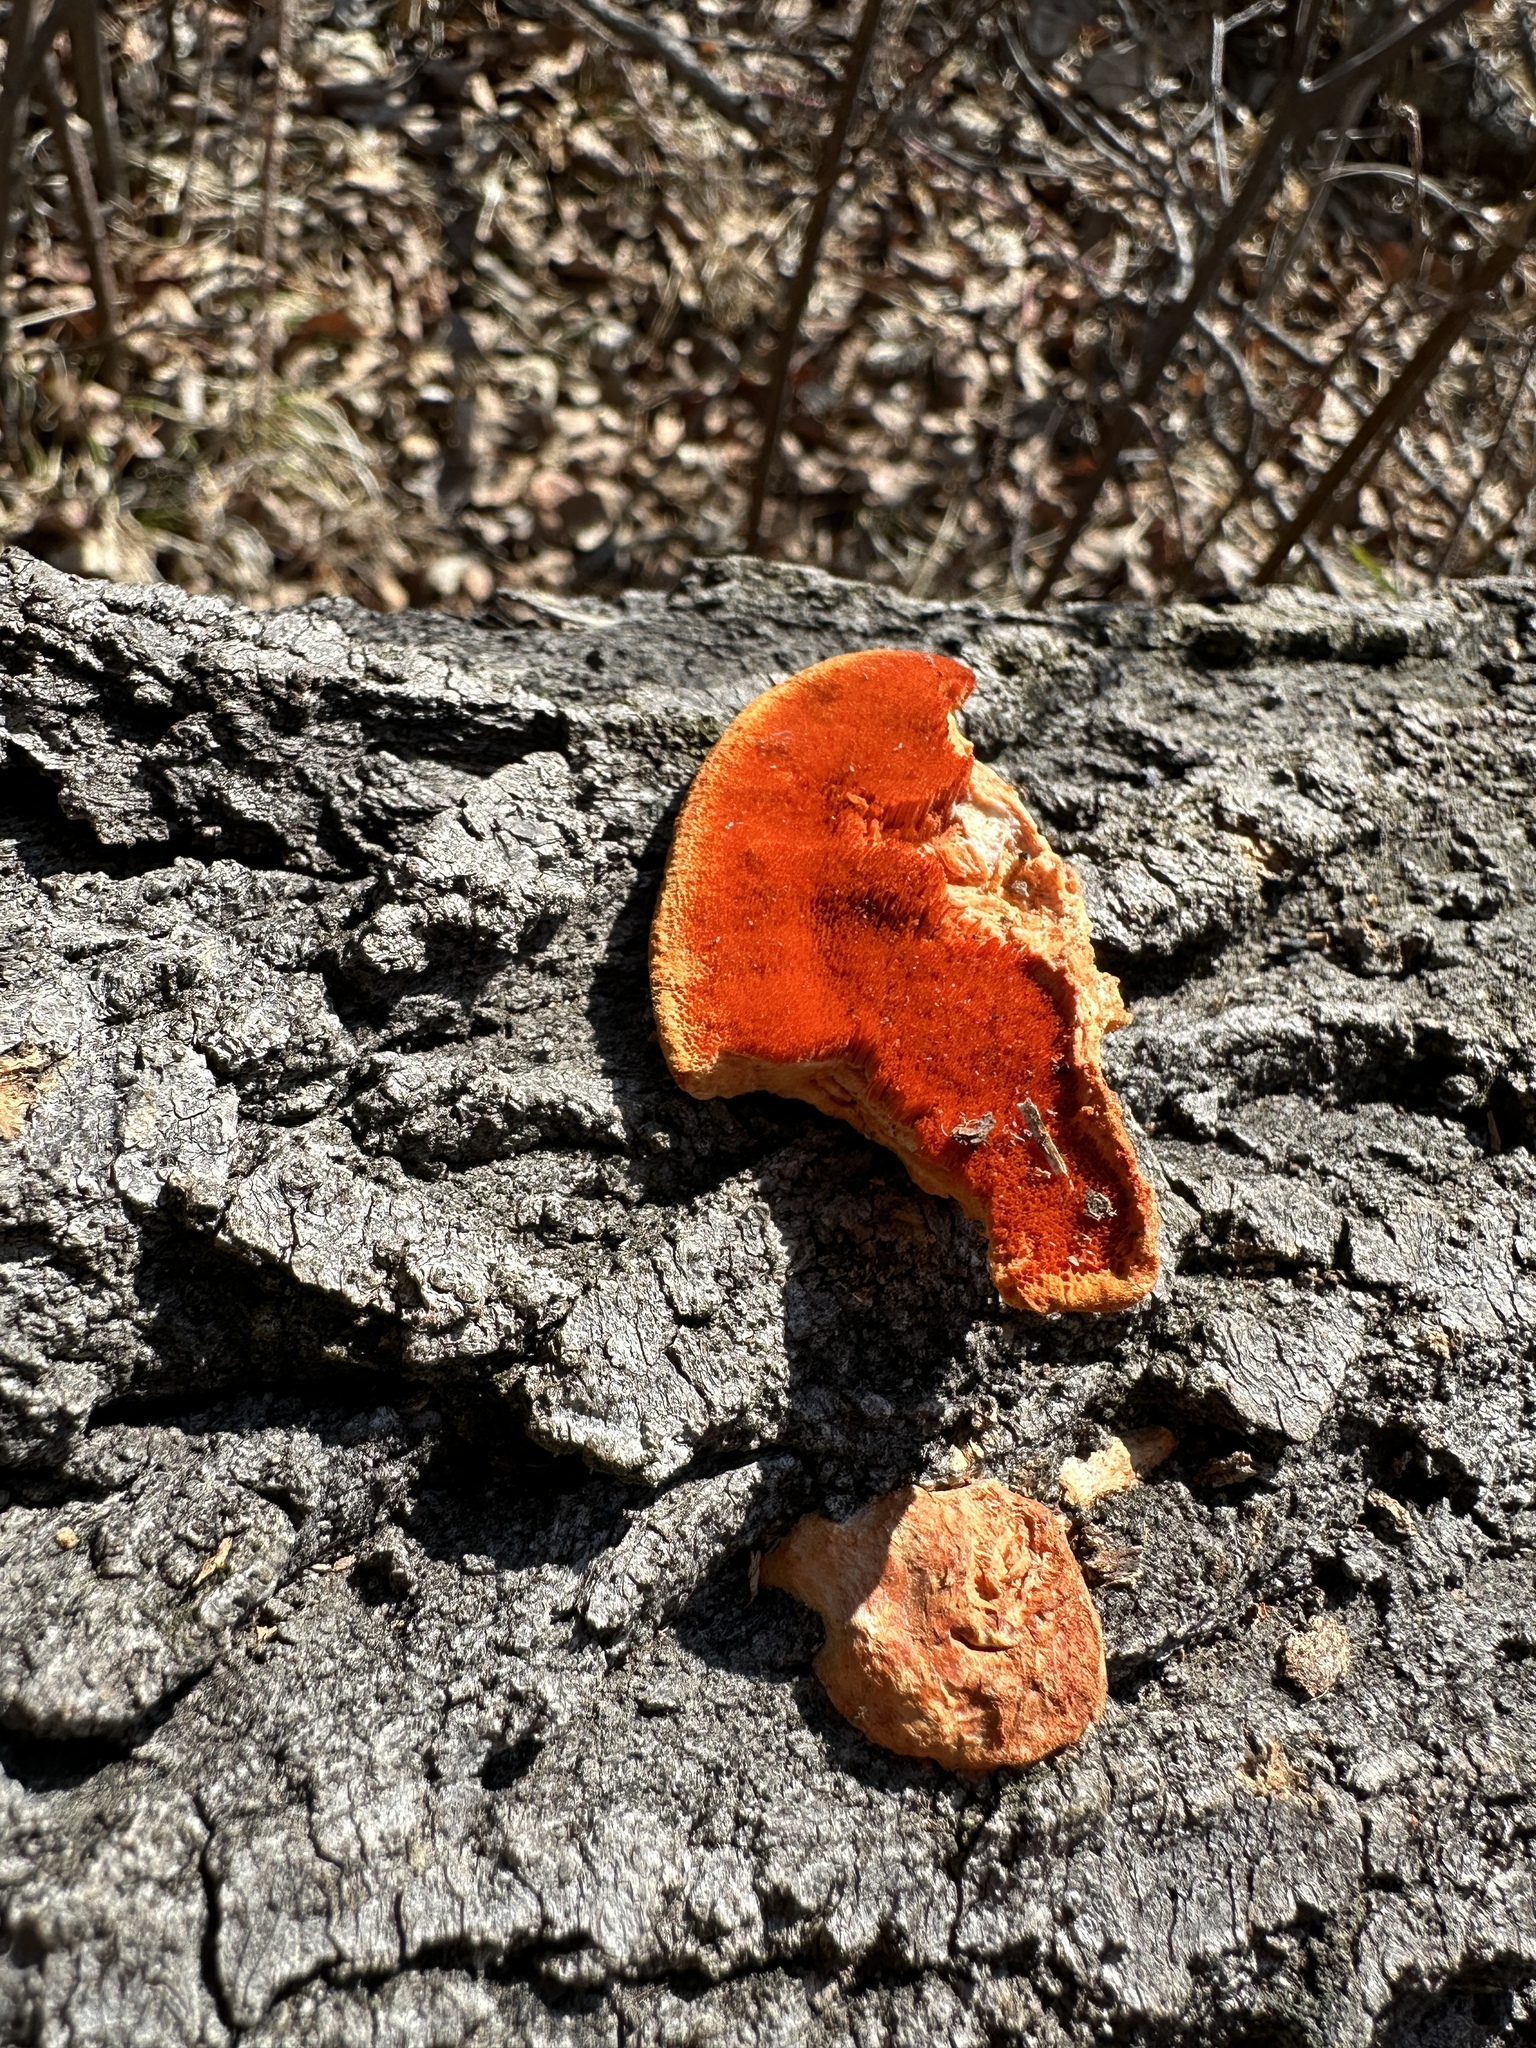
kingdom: Fungi
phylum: Basidiomycota
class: Agaricomycetes
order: Polyporales
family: Polyporaceae
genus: Trametes
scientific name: Trametes cinnabarina
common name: Northern cinnabar polypore
